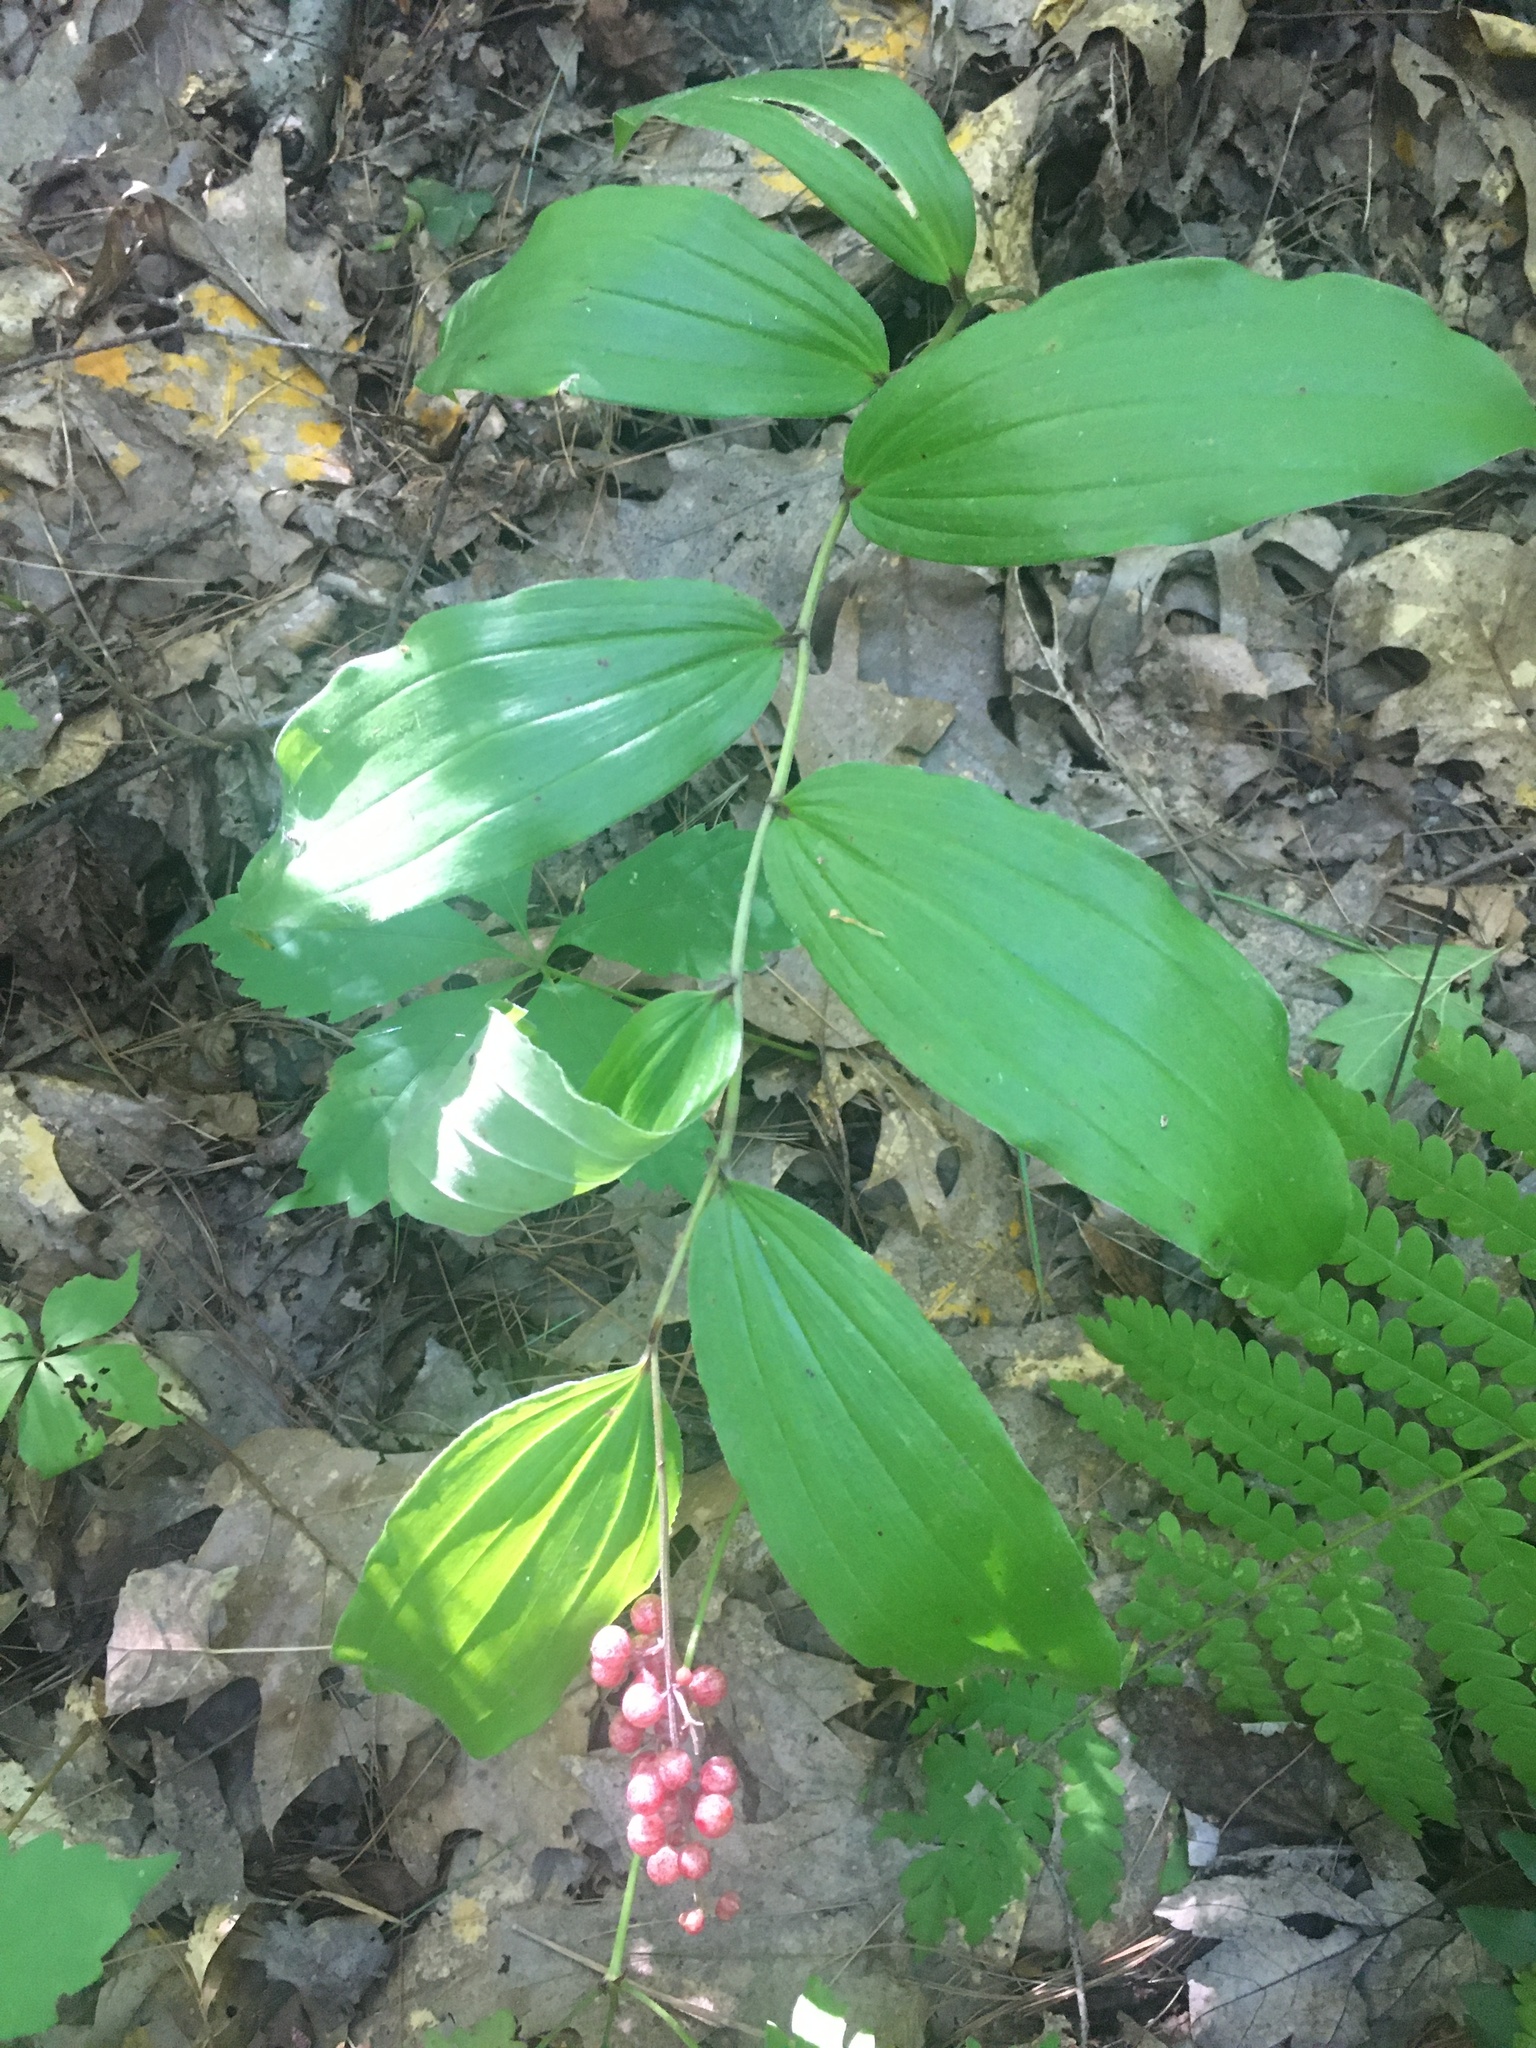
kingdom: Plantae
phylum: Tracheophyta
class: Liliopsida
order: Asparagales
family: Asparagaceae
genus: Maianthemum
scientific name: Maianthemum racemosum
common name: False spikenard
